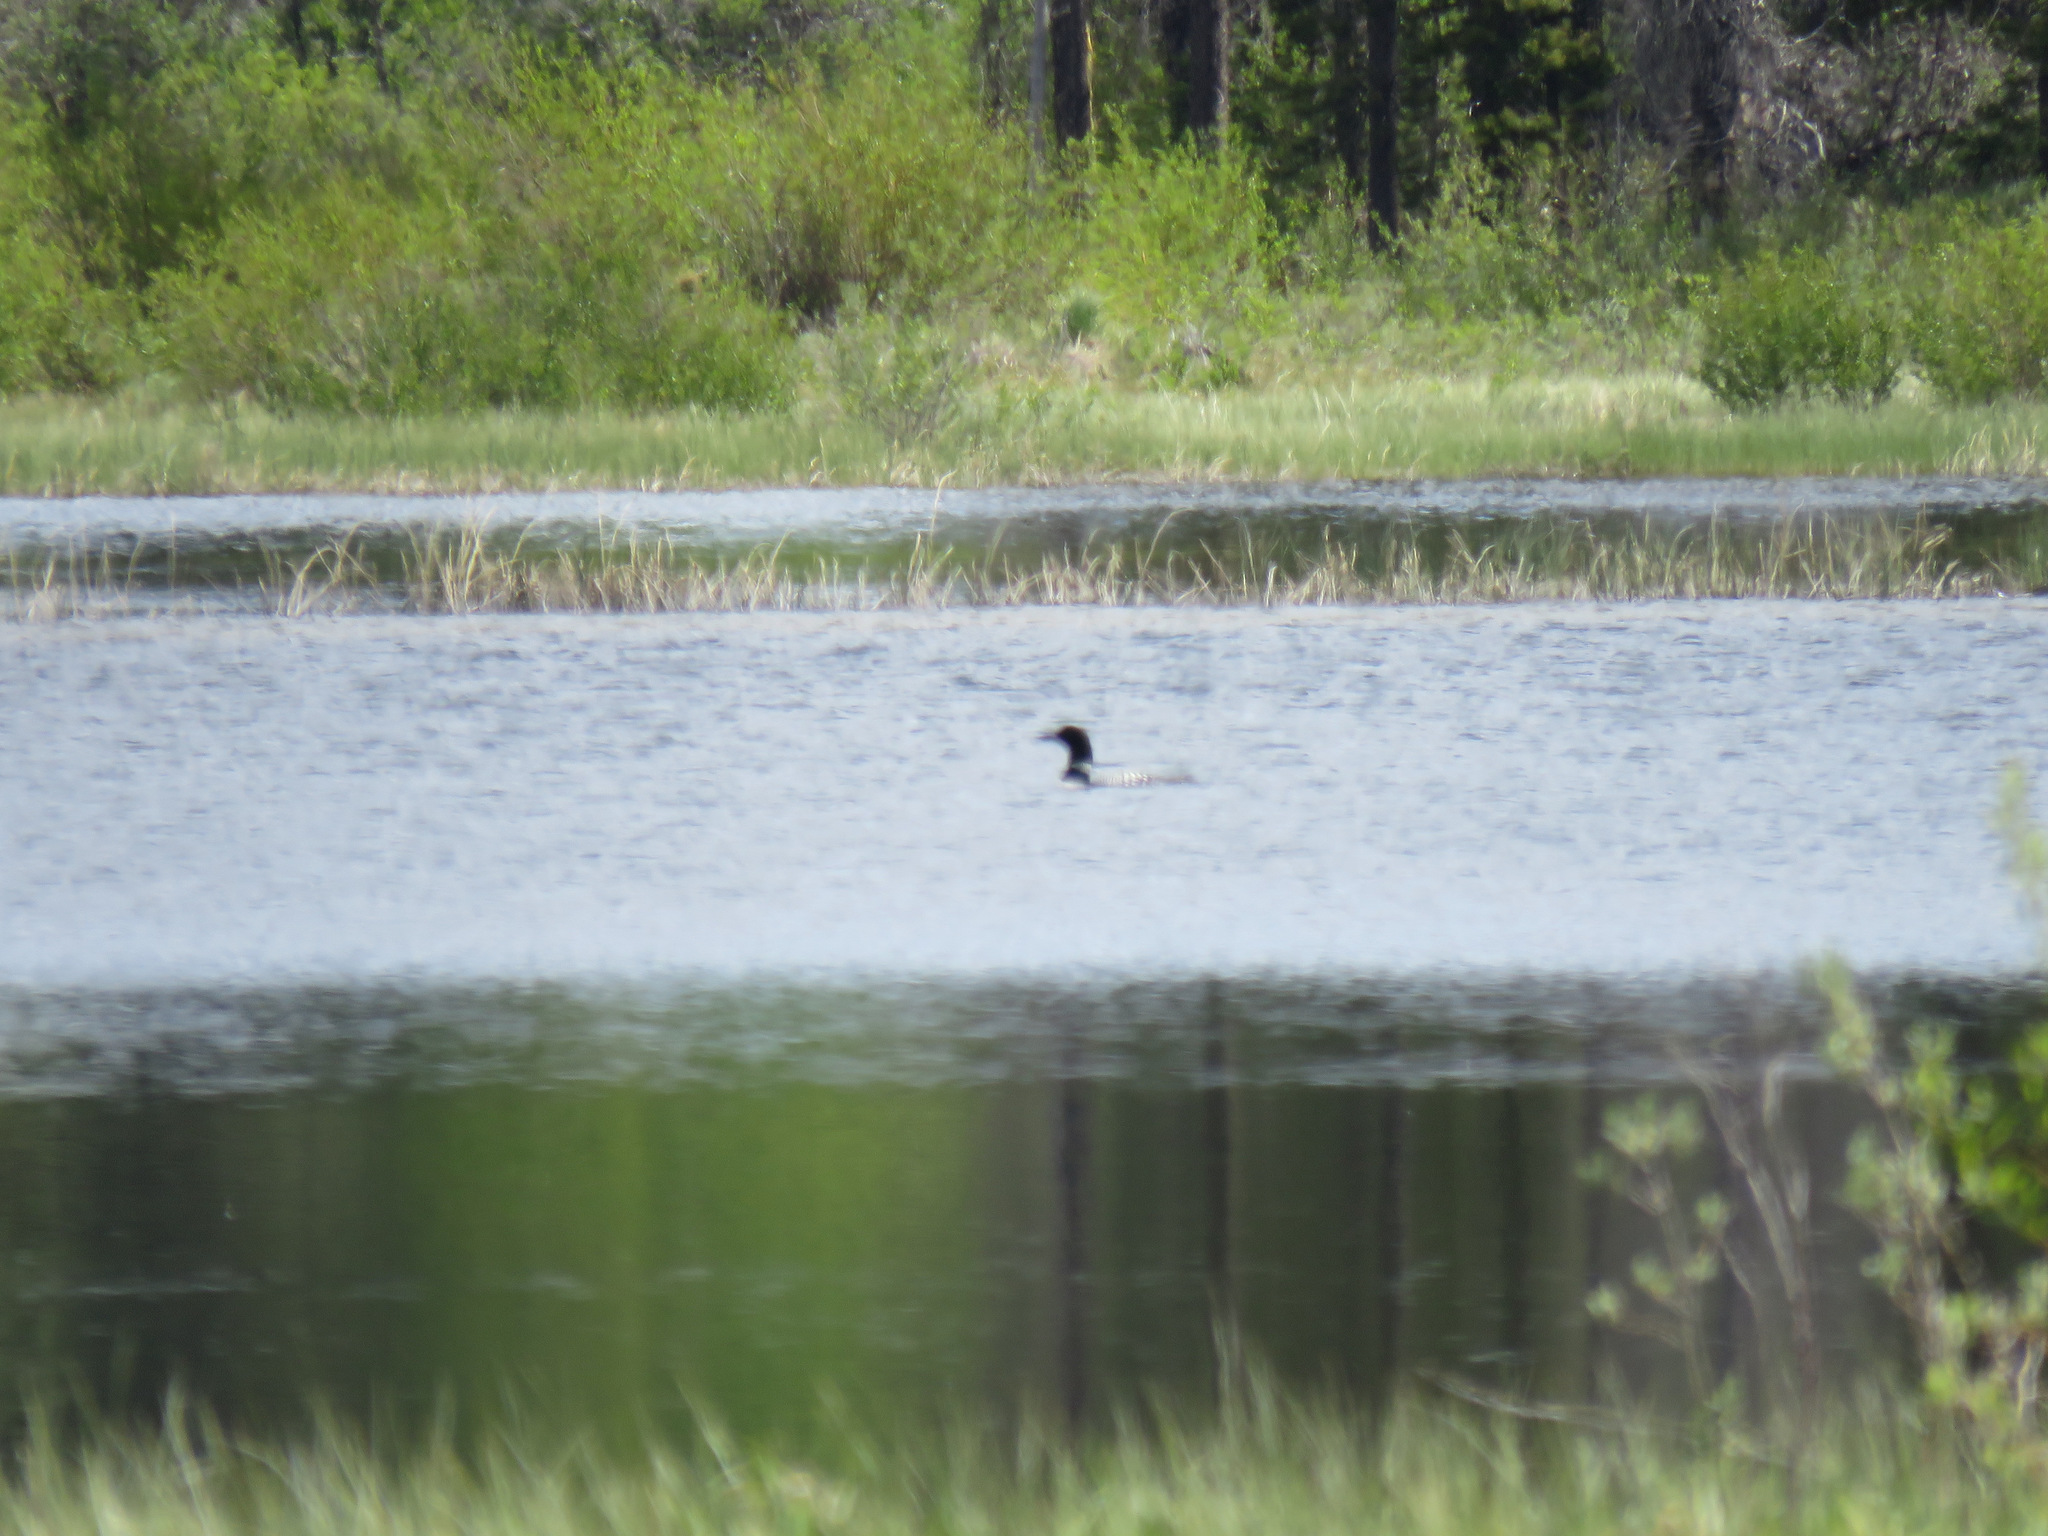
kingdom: Animalia
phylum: Chordata
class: Aves
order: Gaviiformes
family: Gaviidae
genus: Gavia
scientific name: Gavia immer
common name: Common loon
